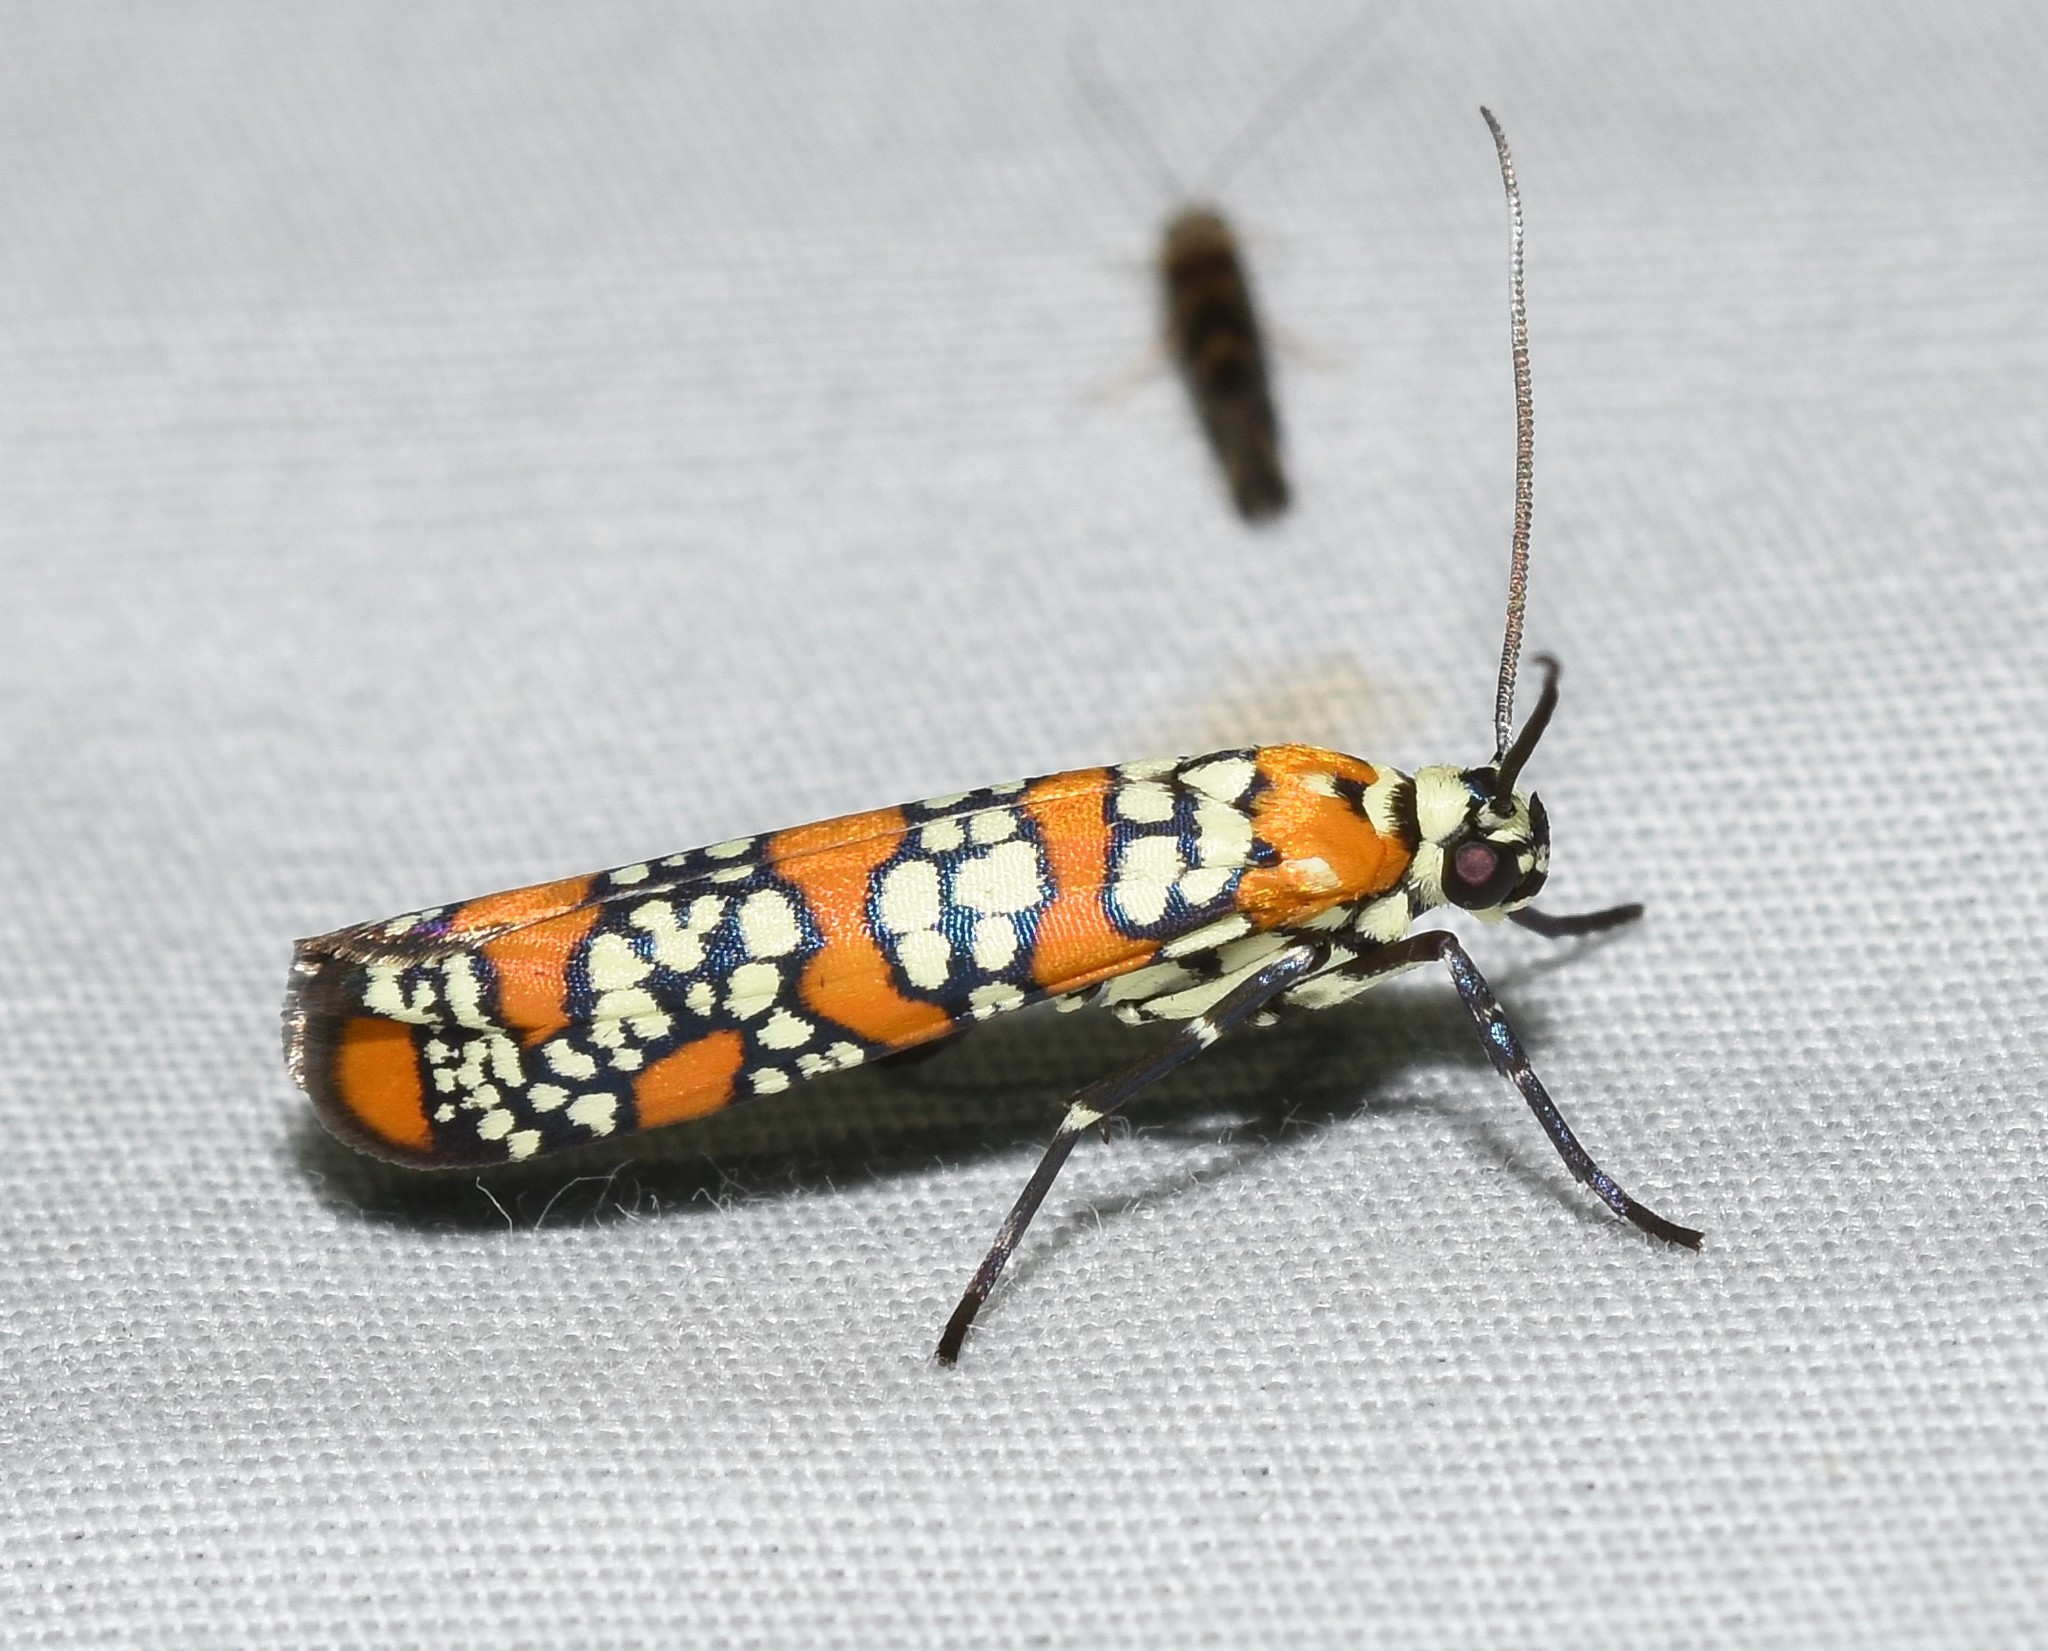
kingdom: Animalia
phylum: Arthropoda
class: Insecta
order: Lepidoptera
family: Attevidae
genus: Atteva
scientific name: Atteva punctella
